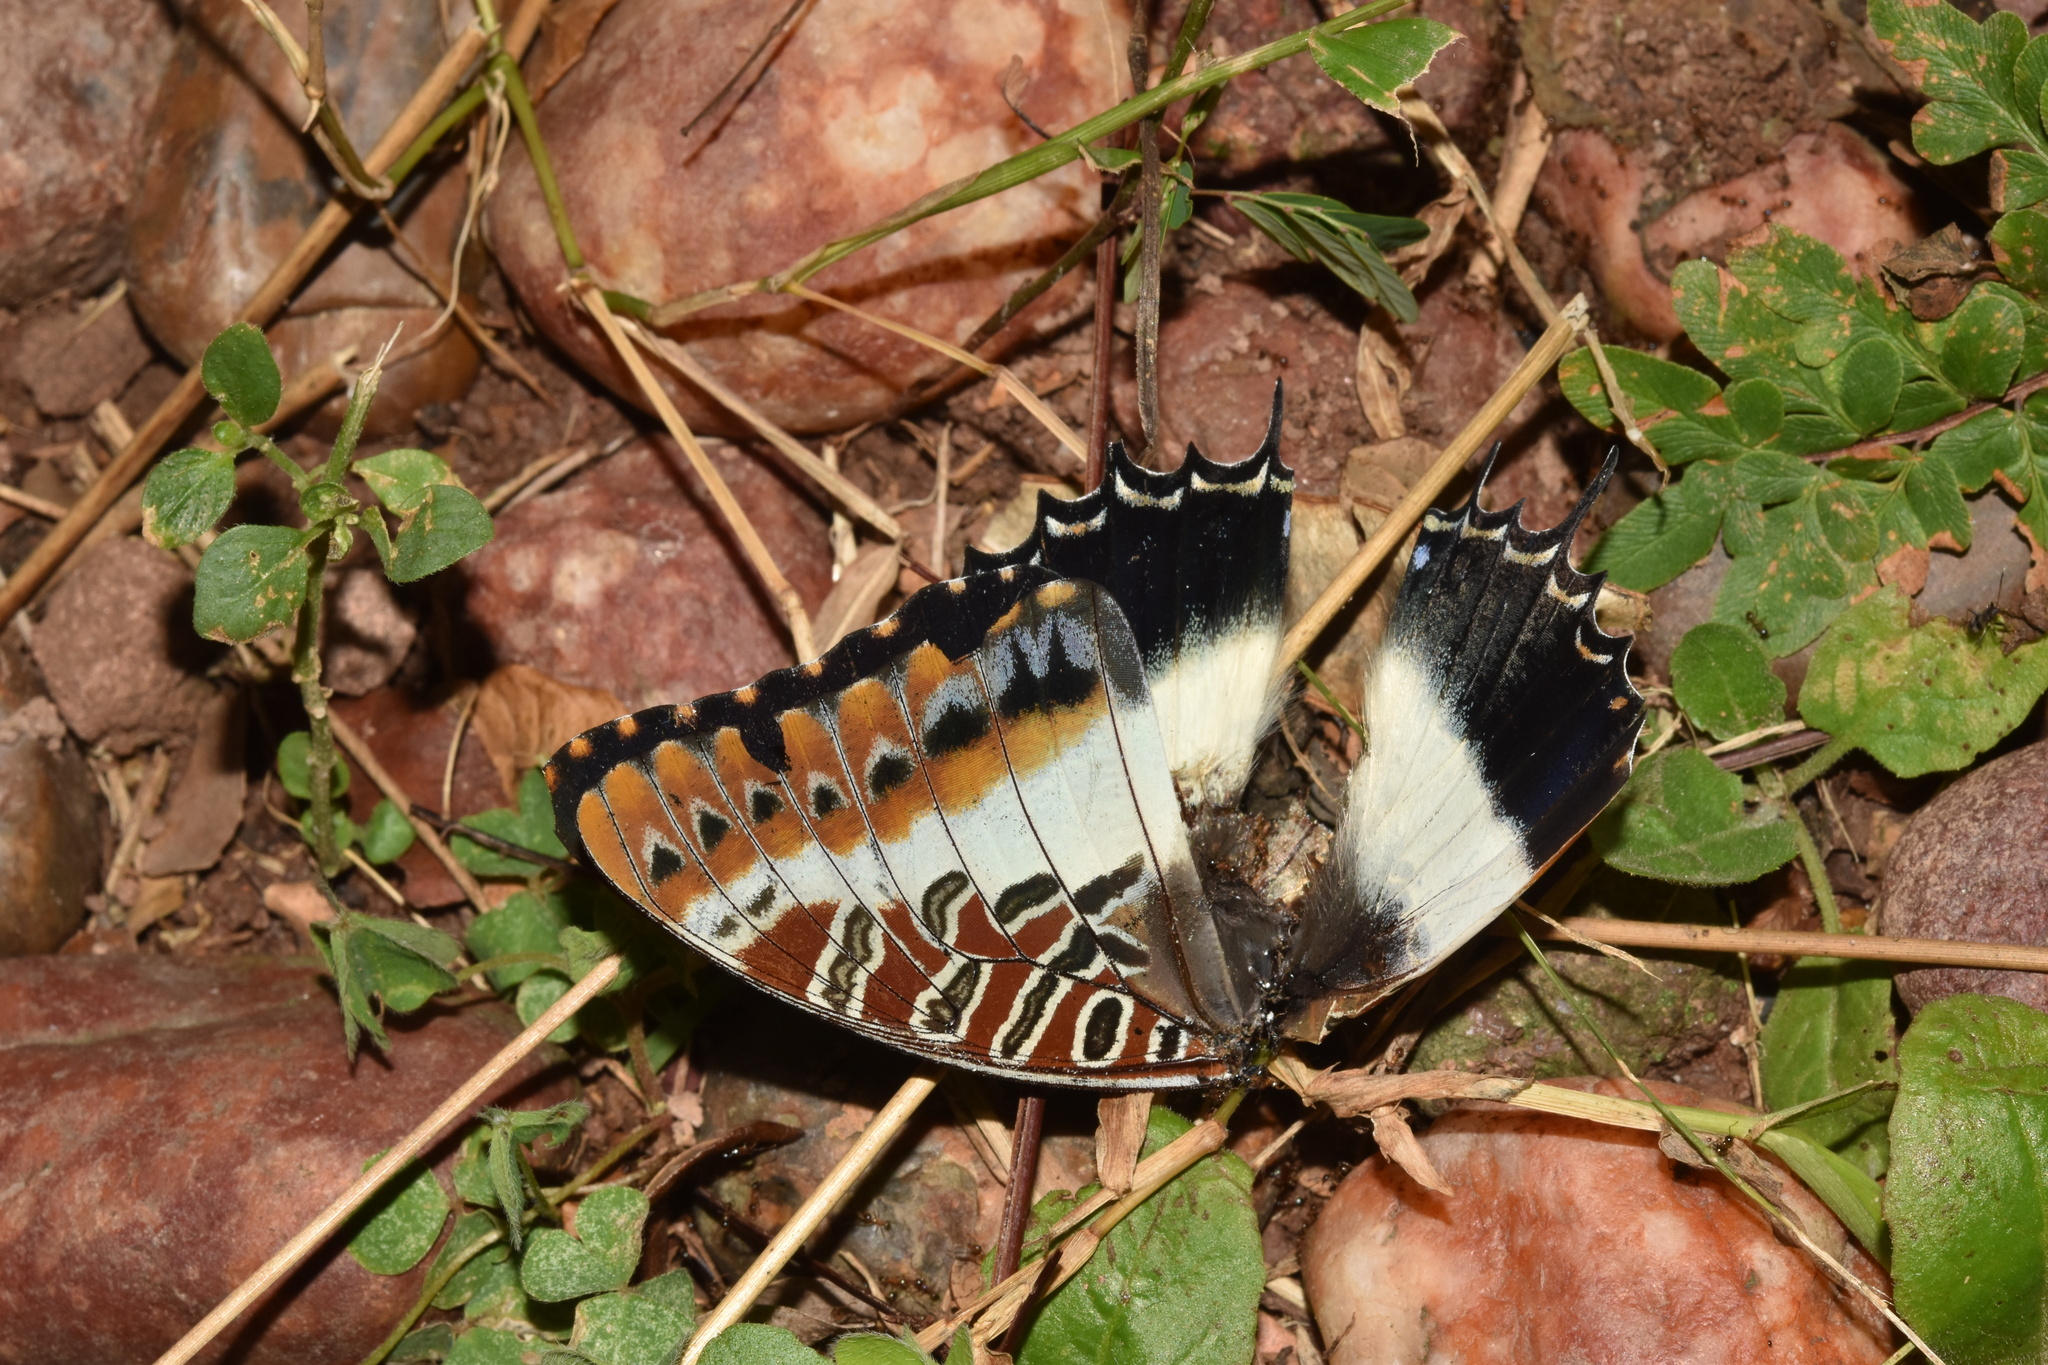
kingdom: Animalia
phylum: Arthropoda
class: Insecta
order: Lepidoptera
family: Nymphalidae
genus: Charaxes
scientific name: Charaxes brutus
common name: White-barred charaxes
